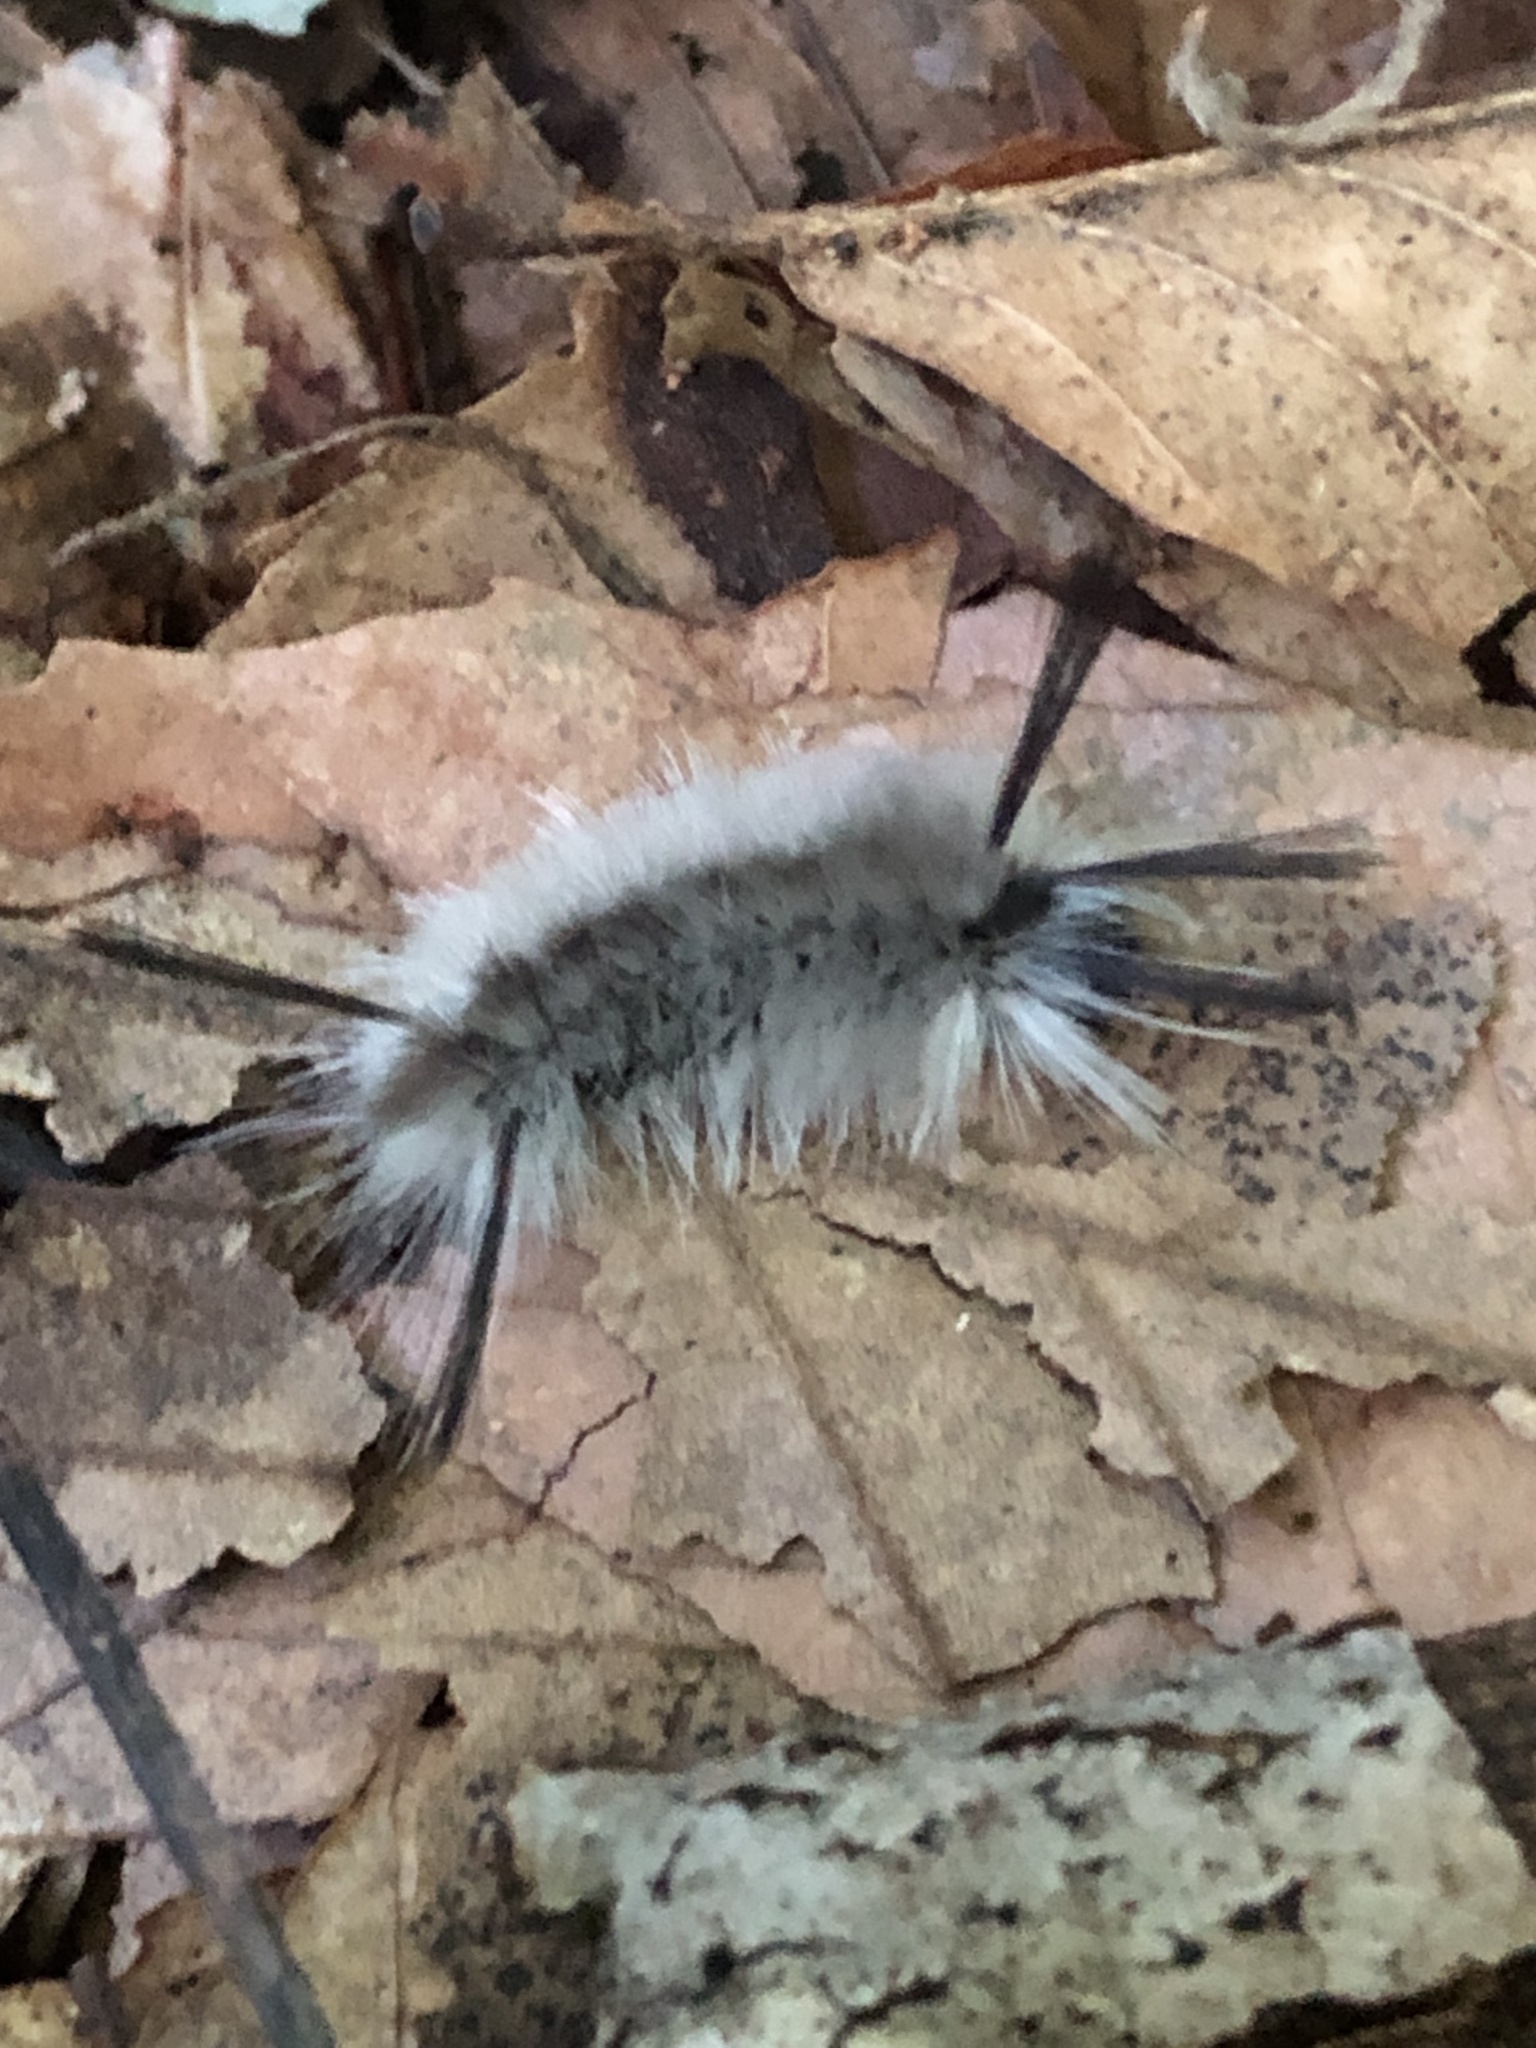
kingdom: Animalia
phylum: Arthropoda
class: Insecta
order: Lepidoptera
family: Erebidae
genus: Halysidota
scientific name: Halysidota tessellaris
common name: Banded tussock moth
